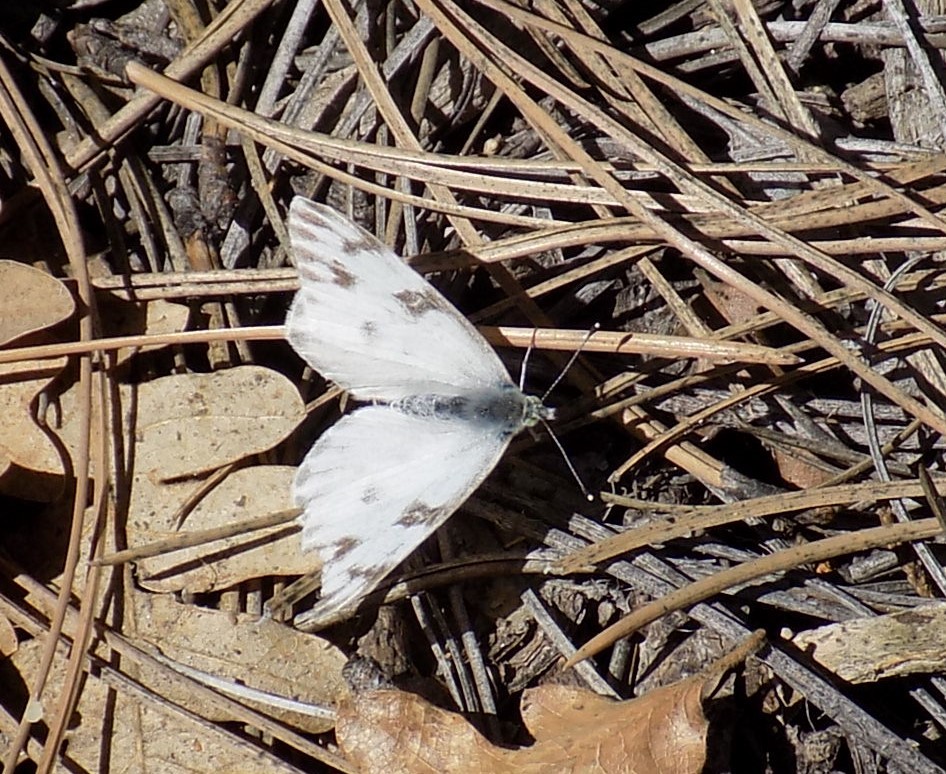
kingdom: Animalia
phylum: Arthropoda
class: Insecta
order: Lepidoptera
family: Pieridae
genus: Pontia
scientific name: Pontia protodice
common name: Checkered white
